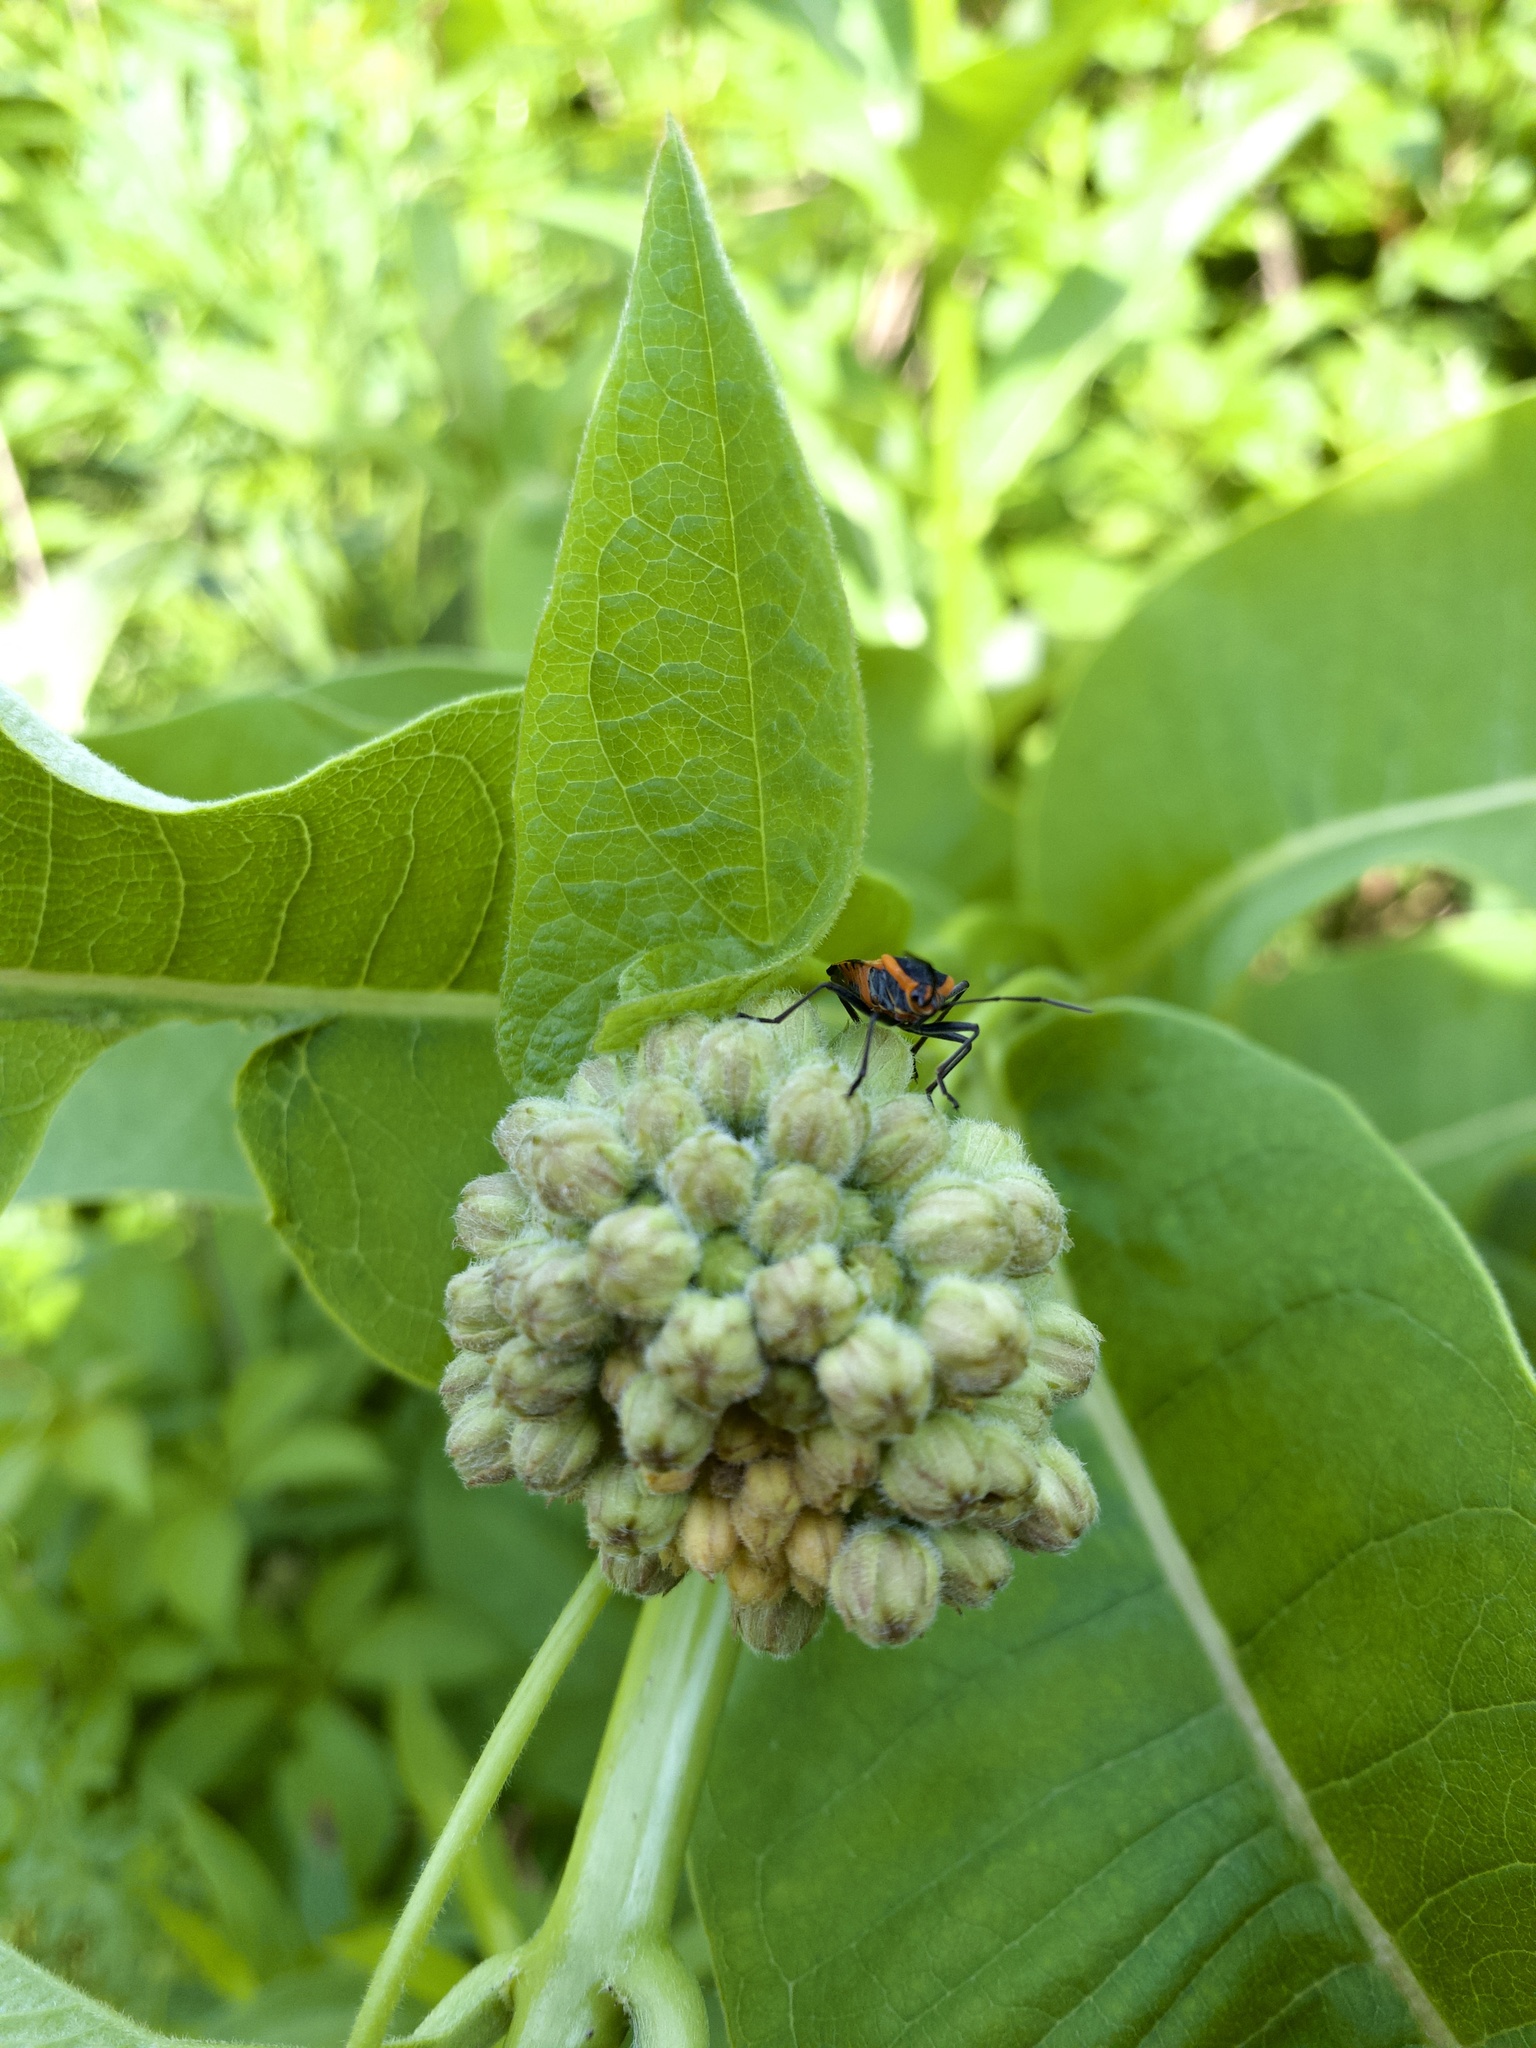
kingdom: Animalia
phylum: Arthropoda
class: Insecta
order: Hemiptera
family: Lygaeidae
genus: Oncopeltus
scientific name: Oncopeltus fasciatus
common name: Large milkweed bug
